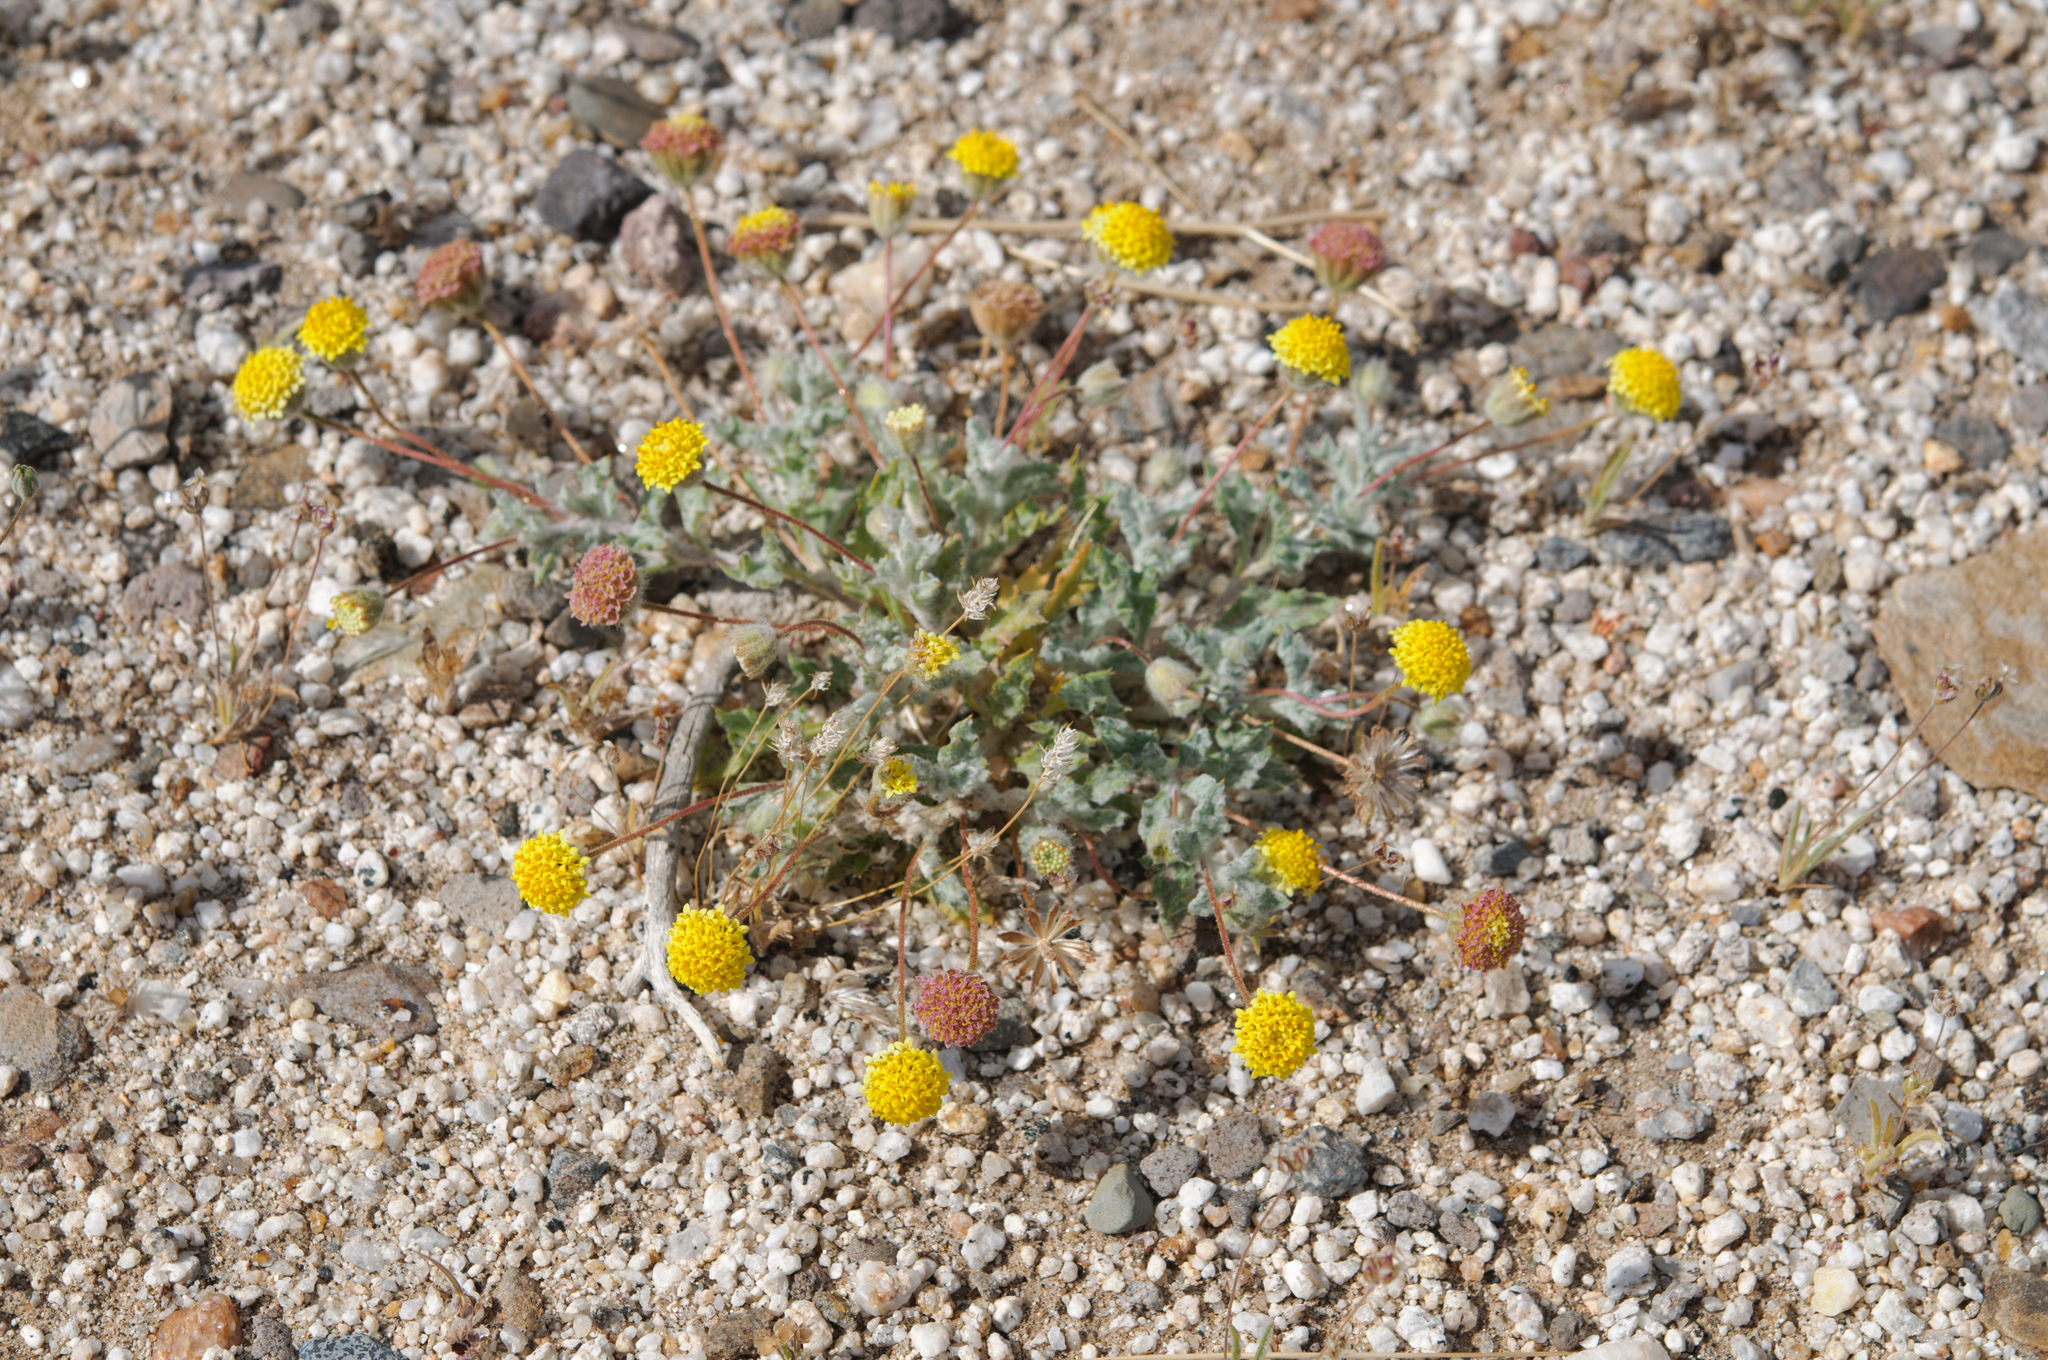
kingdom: Plantae
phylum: Tracheophyta
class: Magnoliopsida
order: Asterales
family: Asteraceae
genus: Trichoptilium
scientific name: Trichoptilium incisum
